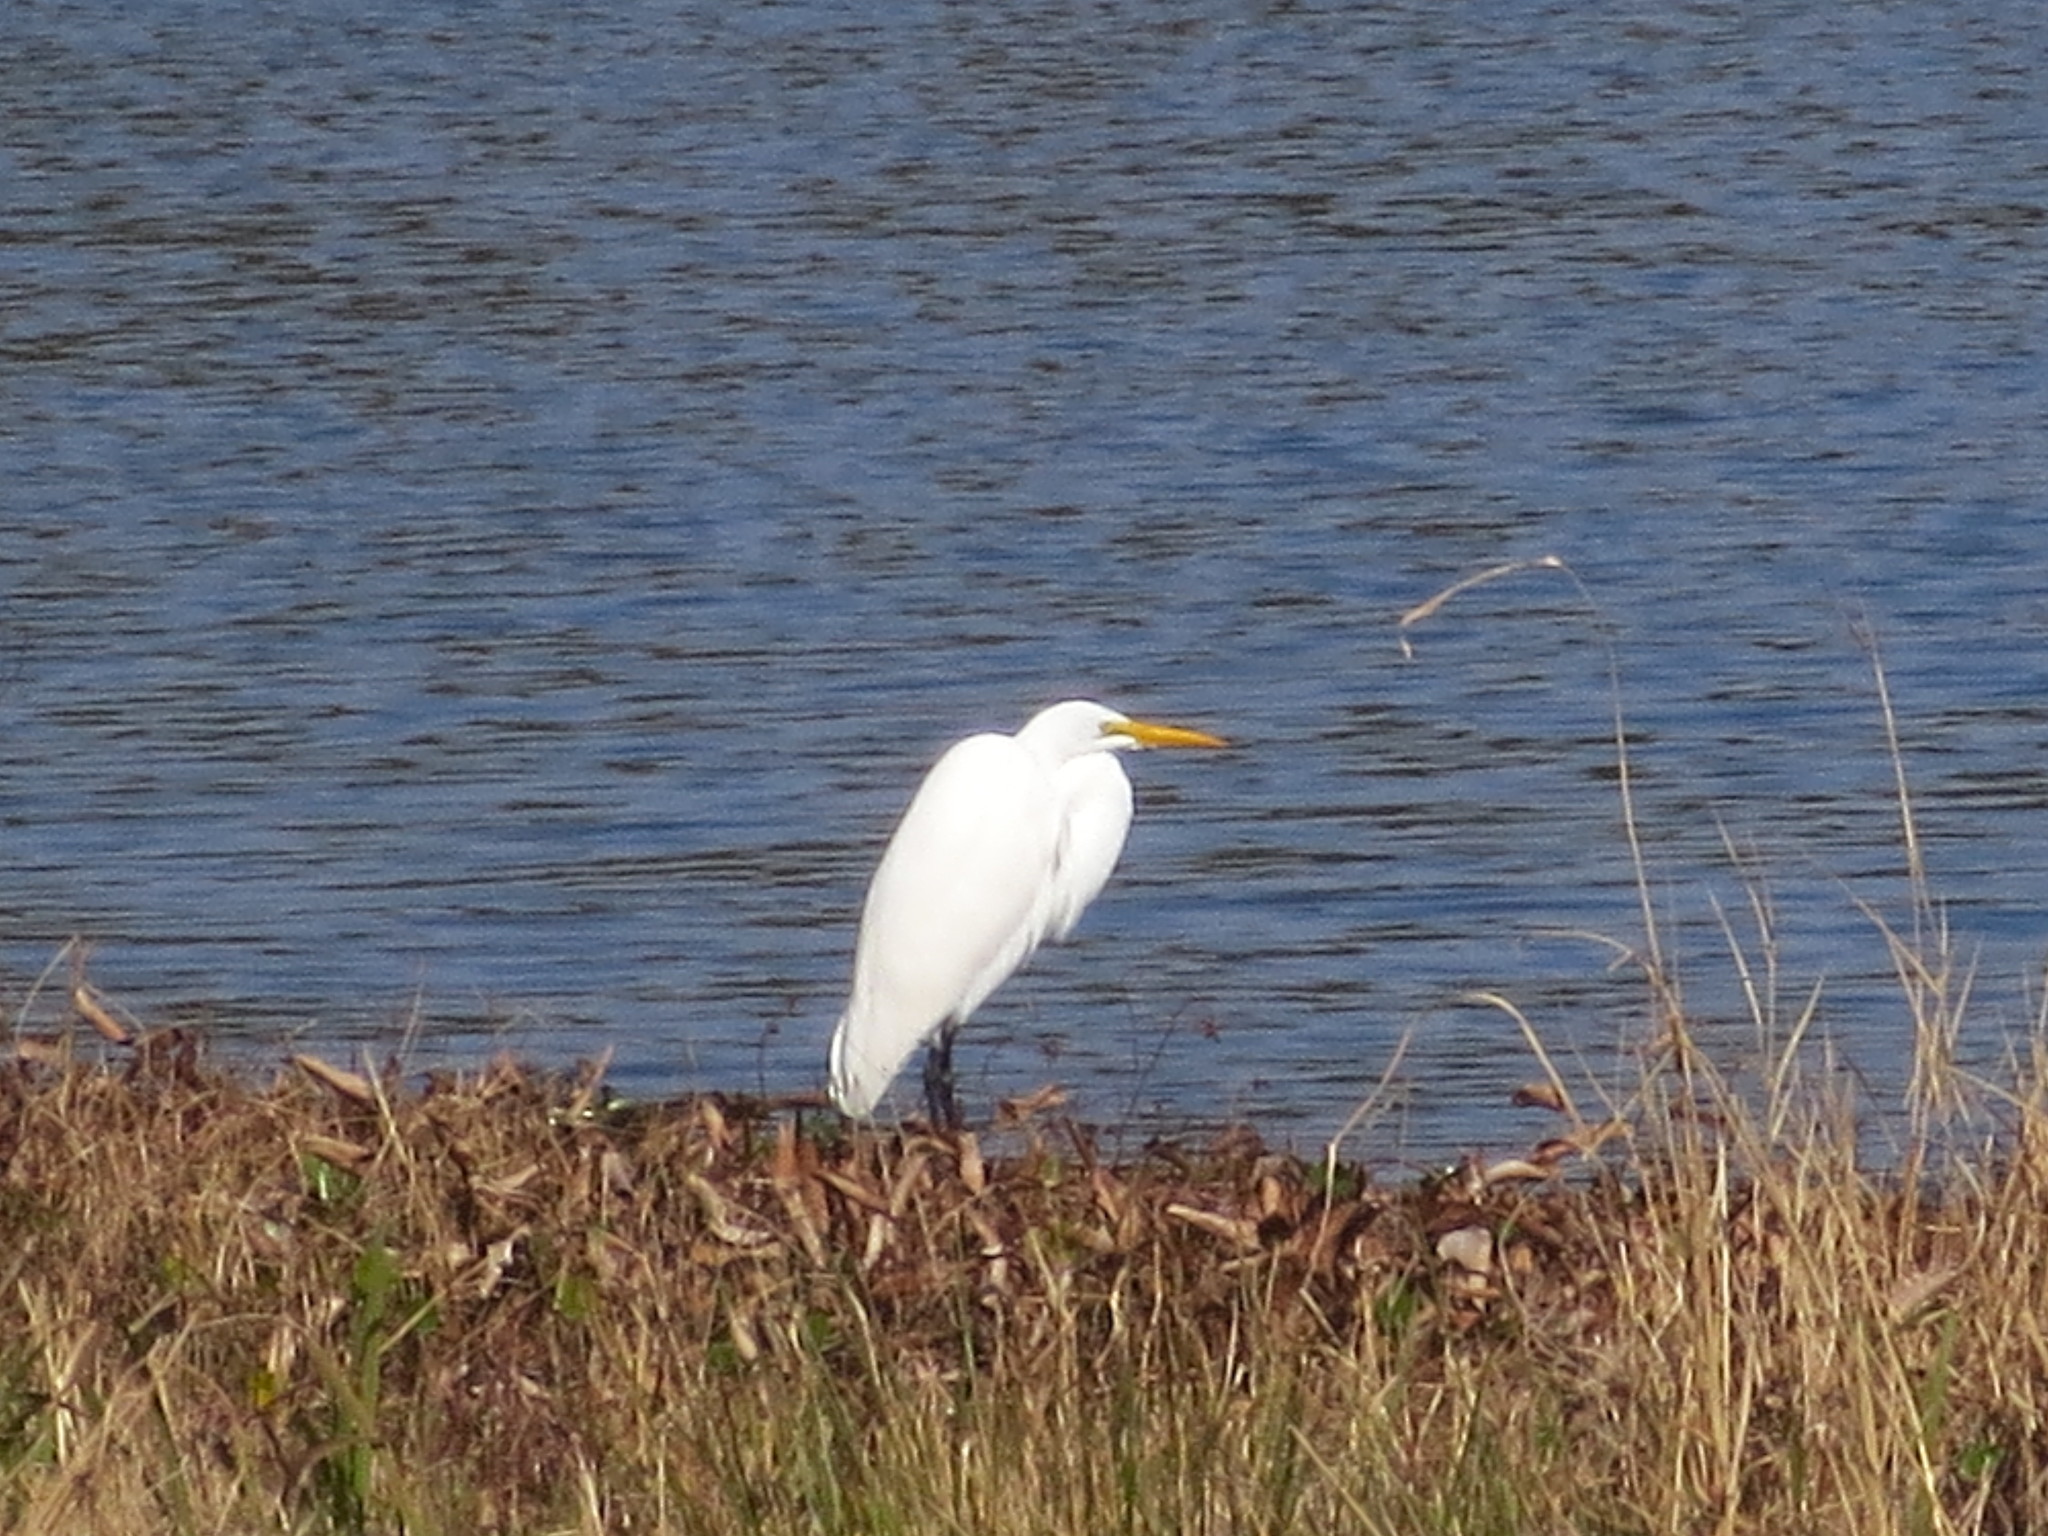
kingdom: Animalia
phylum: Chordata
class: Aves
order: Pelecaniformes
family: Ardeidae
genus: Ardea
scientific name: Ardea alba
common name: Great egret
